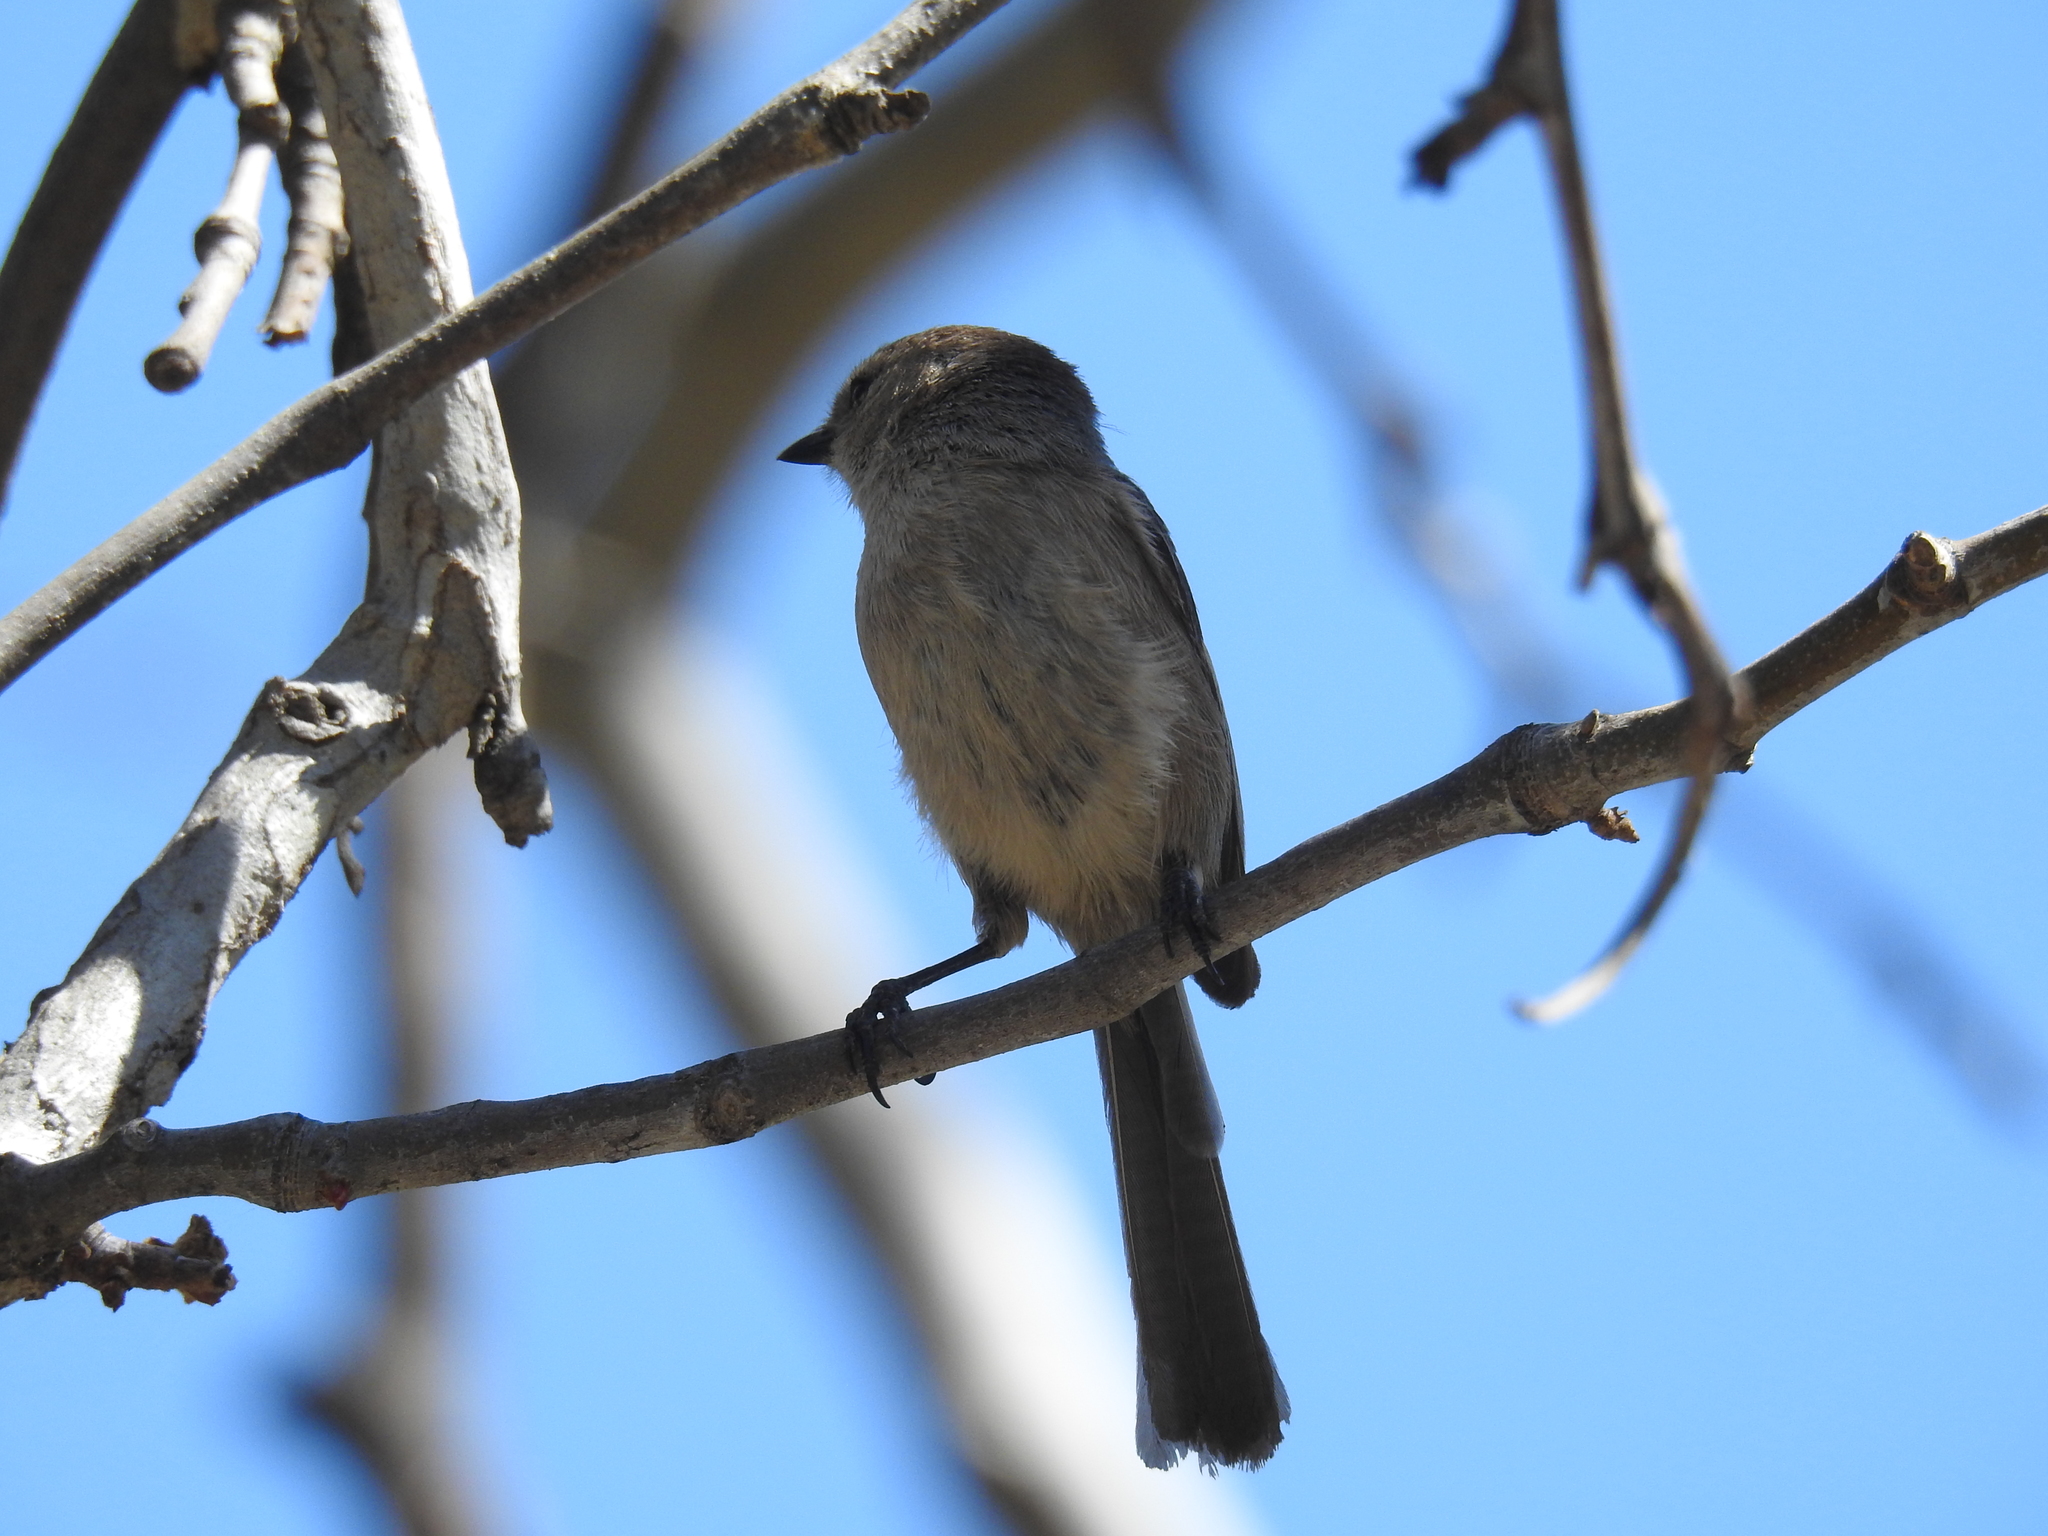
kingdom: Animalia
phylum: Chordata
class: Aves
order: Passeriformes
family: Aegithalidae
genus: Psaltriparus
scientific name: Psaltriparus minimus
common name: American bushtit
